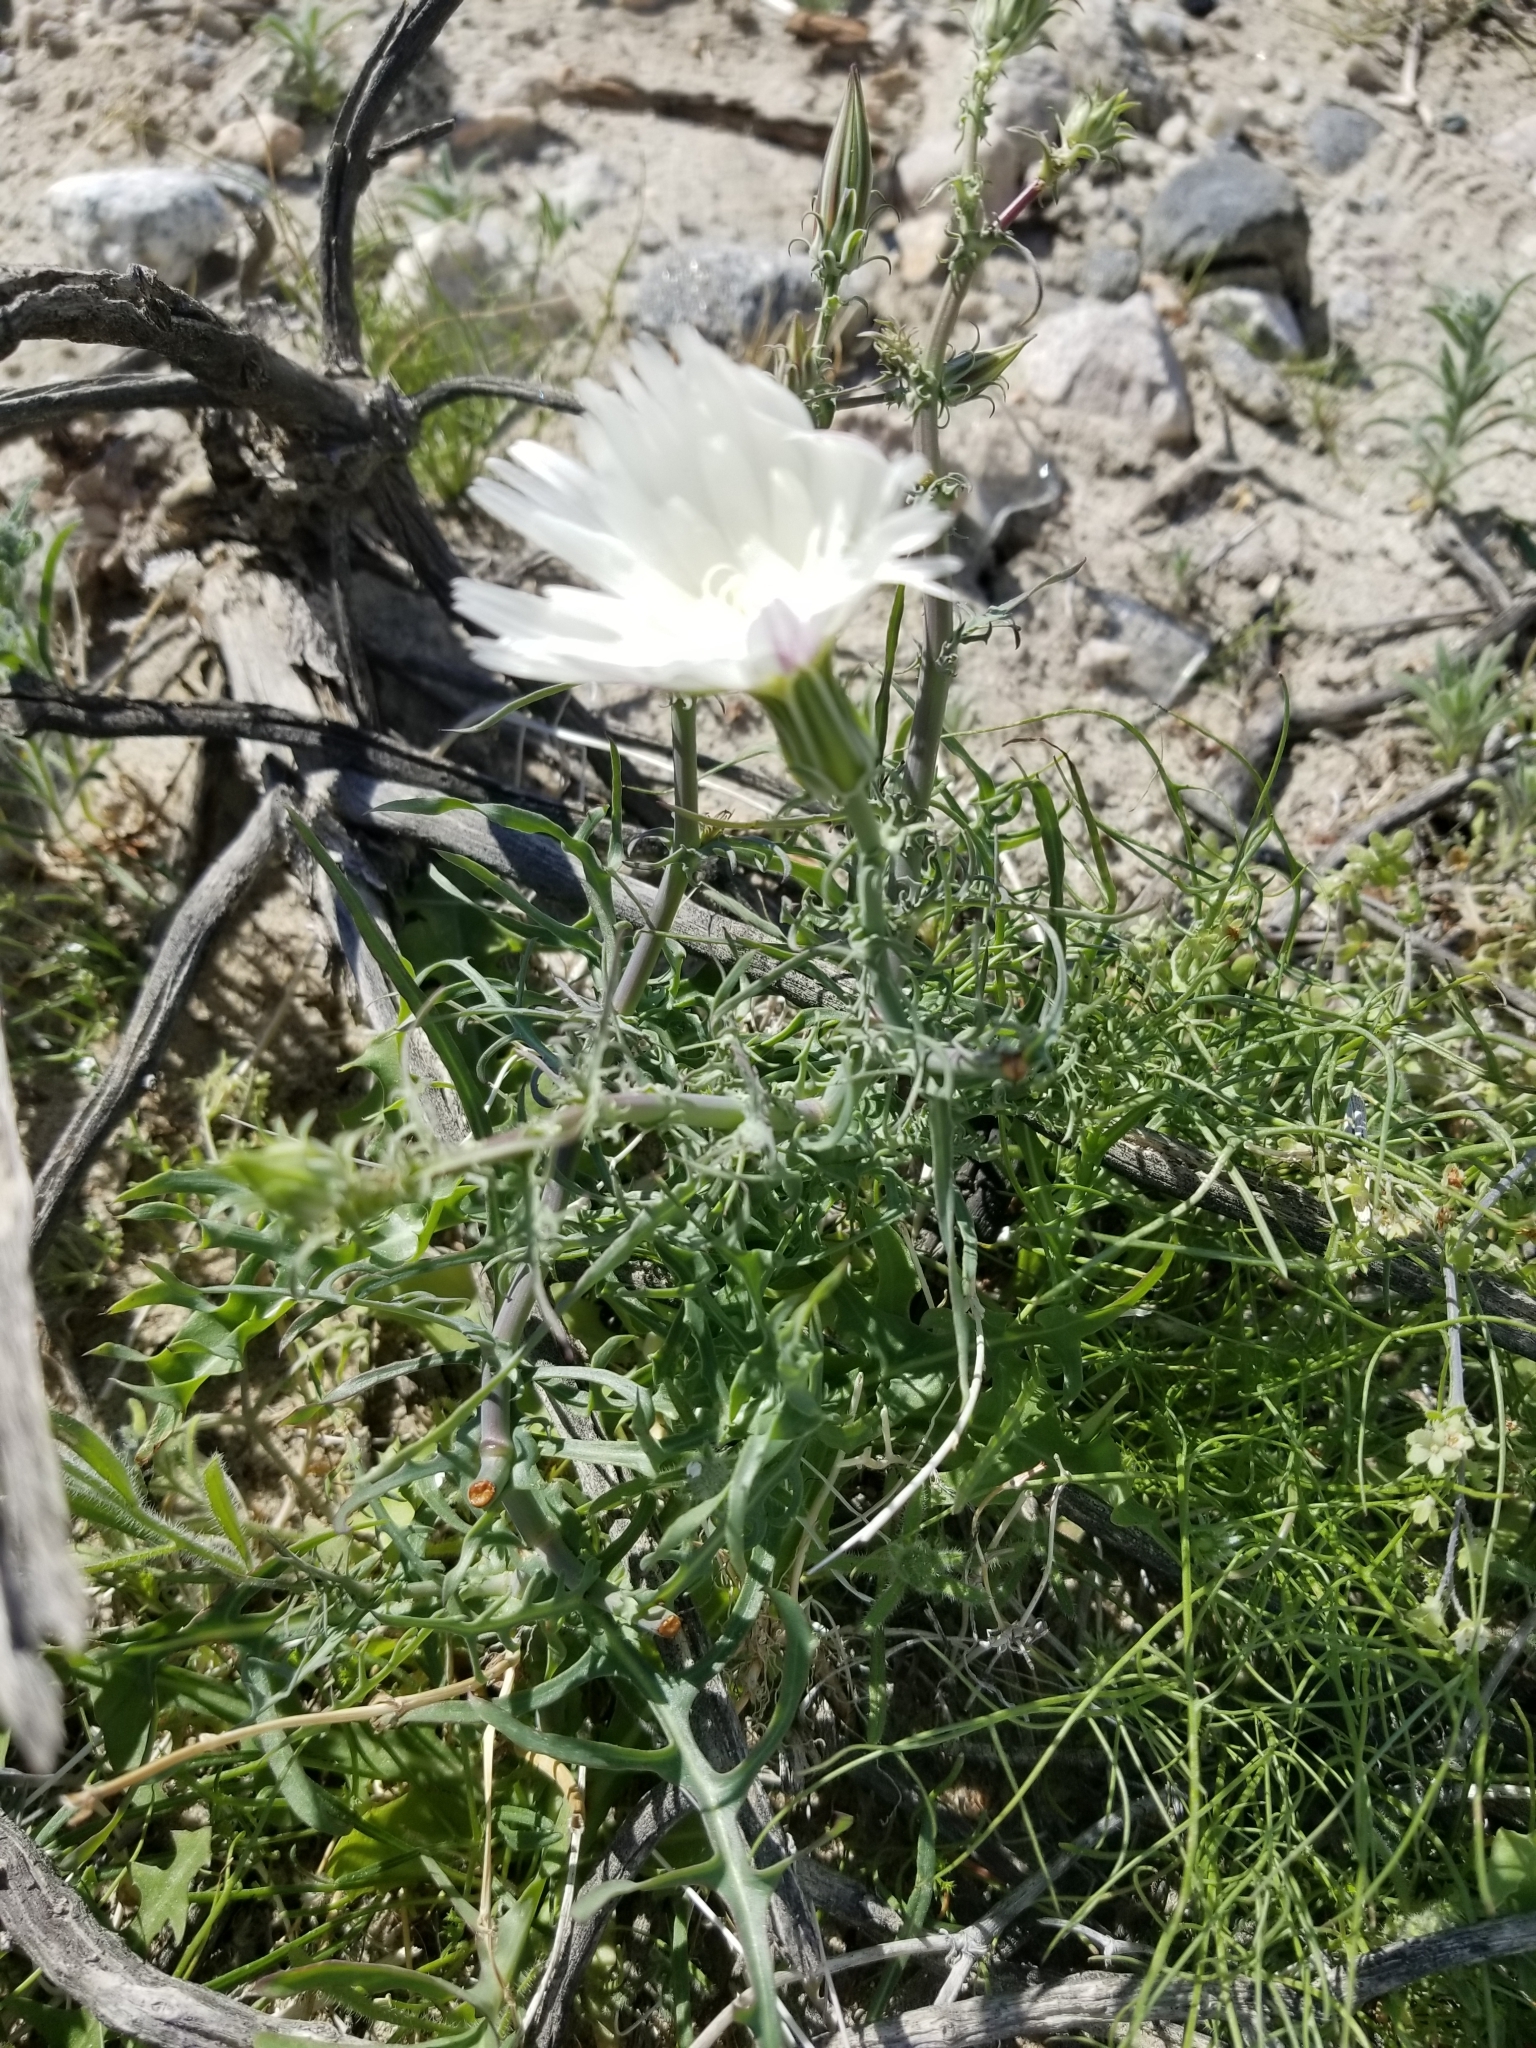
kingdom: Plantae
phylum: Tracheophyta
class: Magnoliopsida
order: Asterales
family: Asteraceae
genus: Rafinesquia
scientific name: Rafinesquia neomexicana
